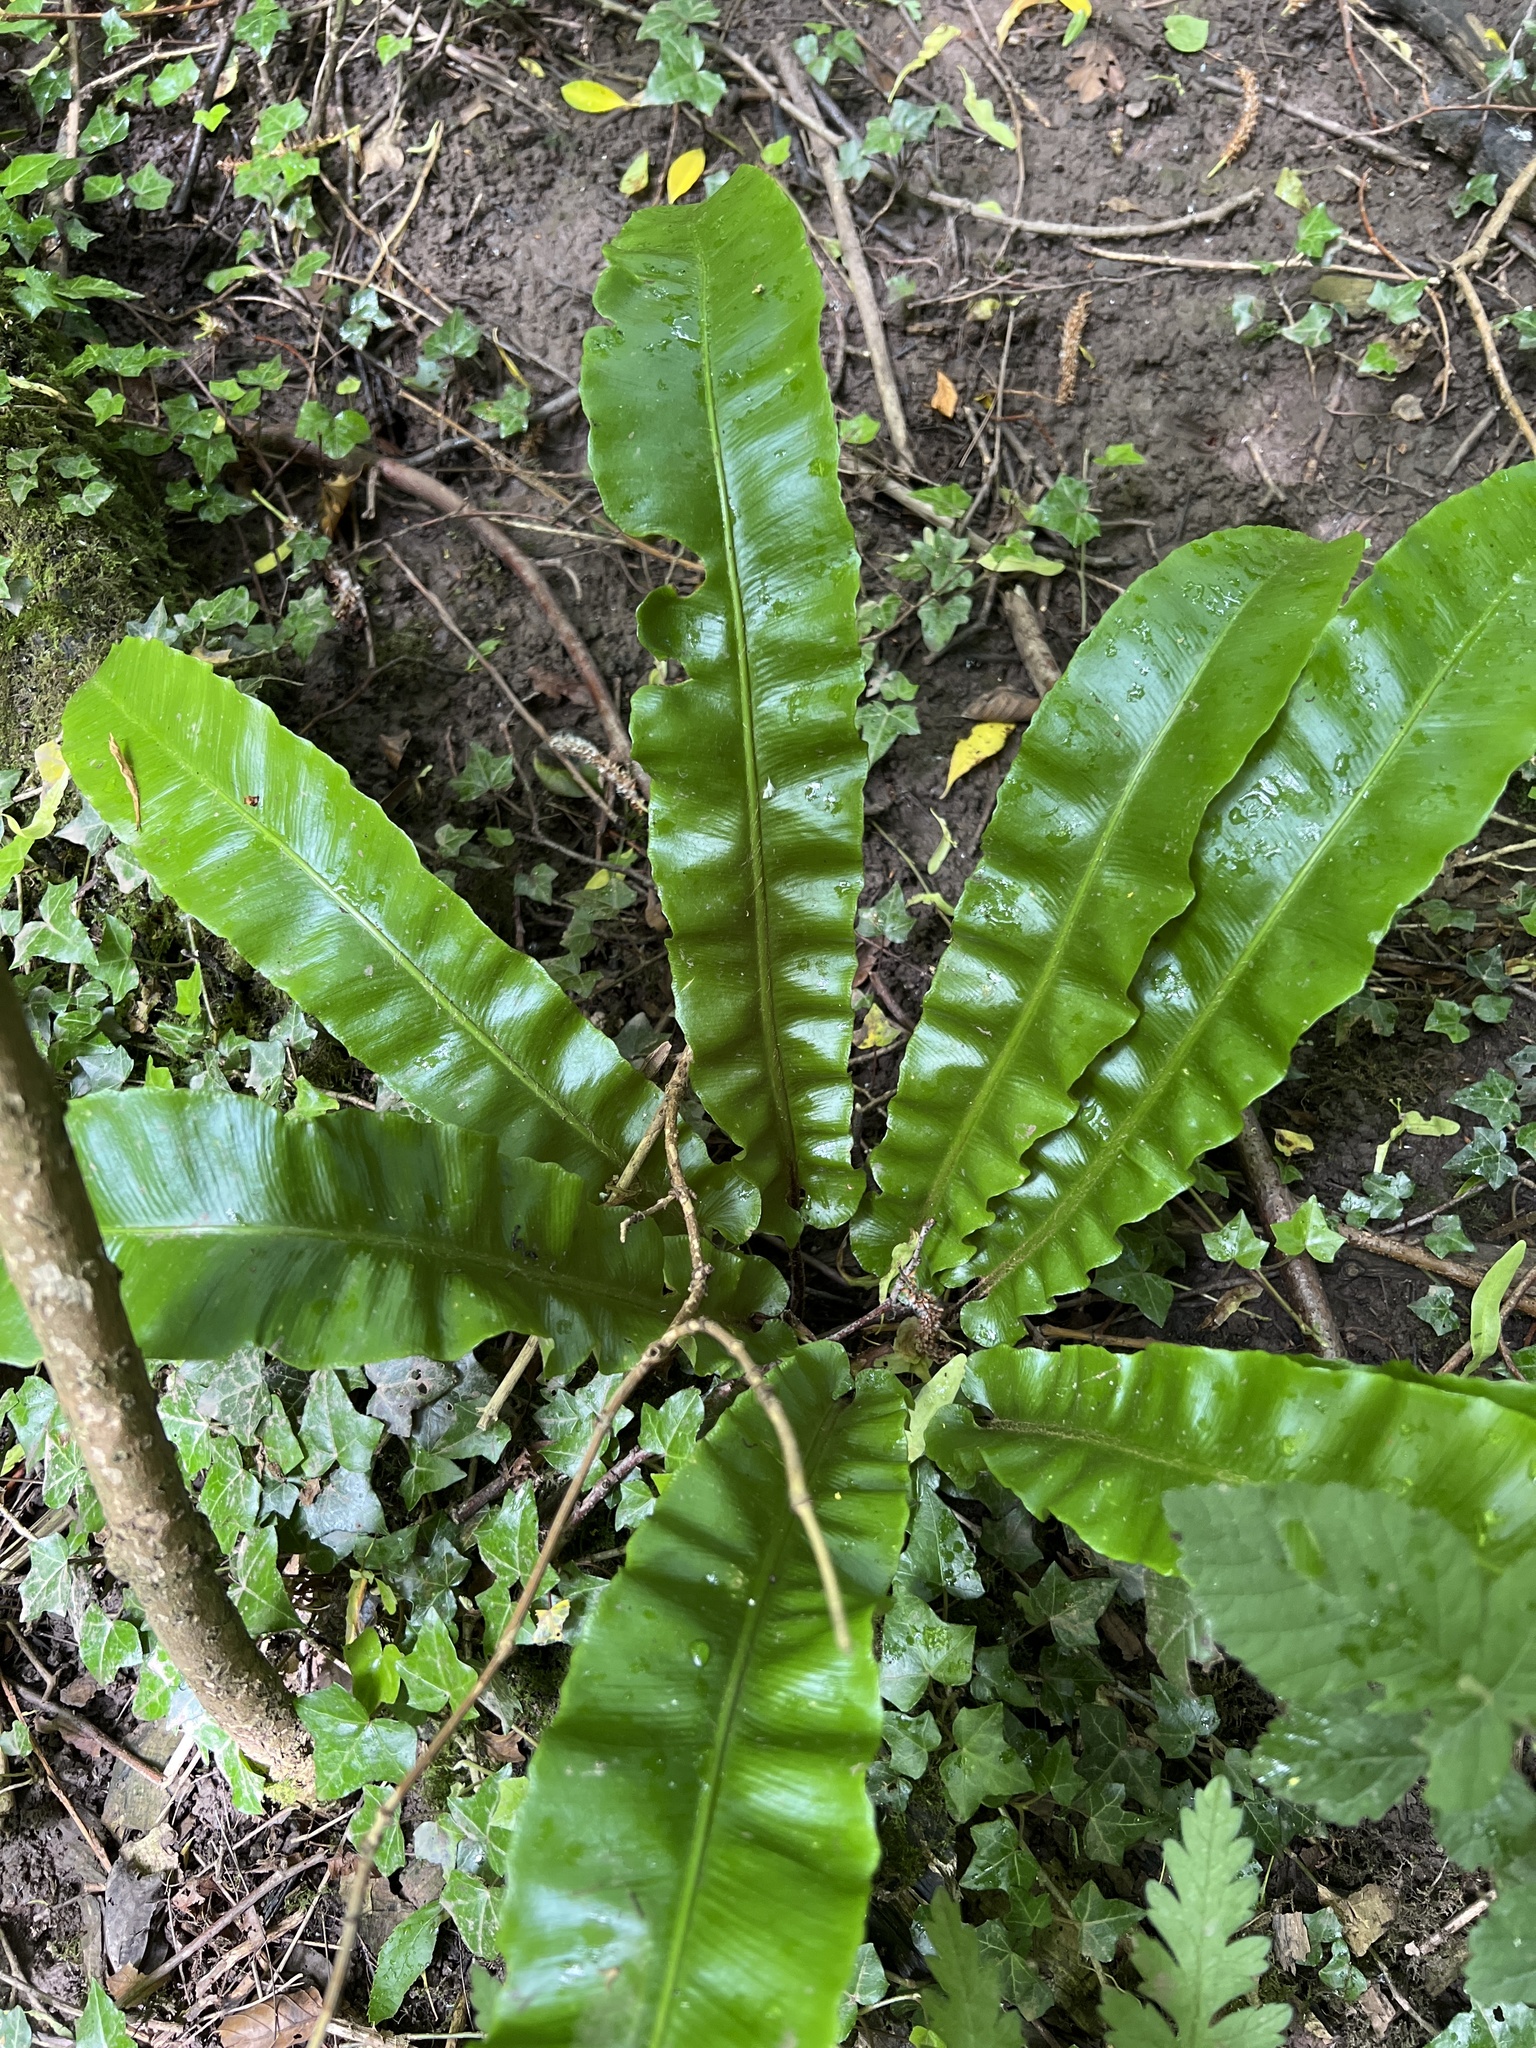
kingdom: Plantae
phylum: Tracheophyta
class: Polypodiopsida
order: Polypodiales
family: Aspleniaceae
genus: Asplenium
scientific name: Asplenium scolopendrium
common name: Hart's-tongue fern
